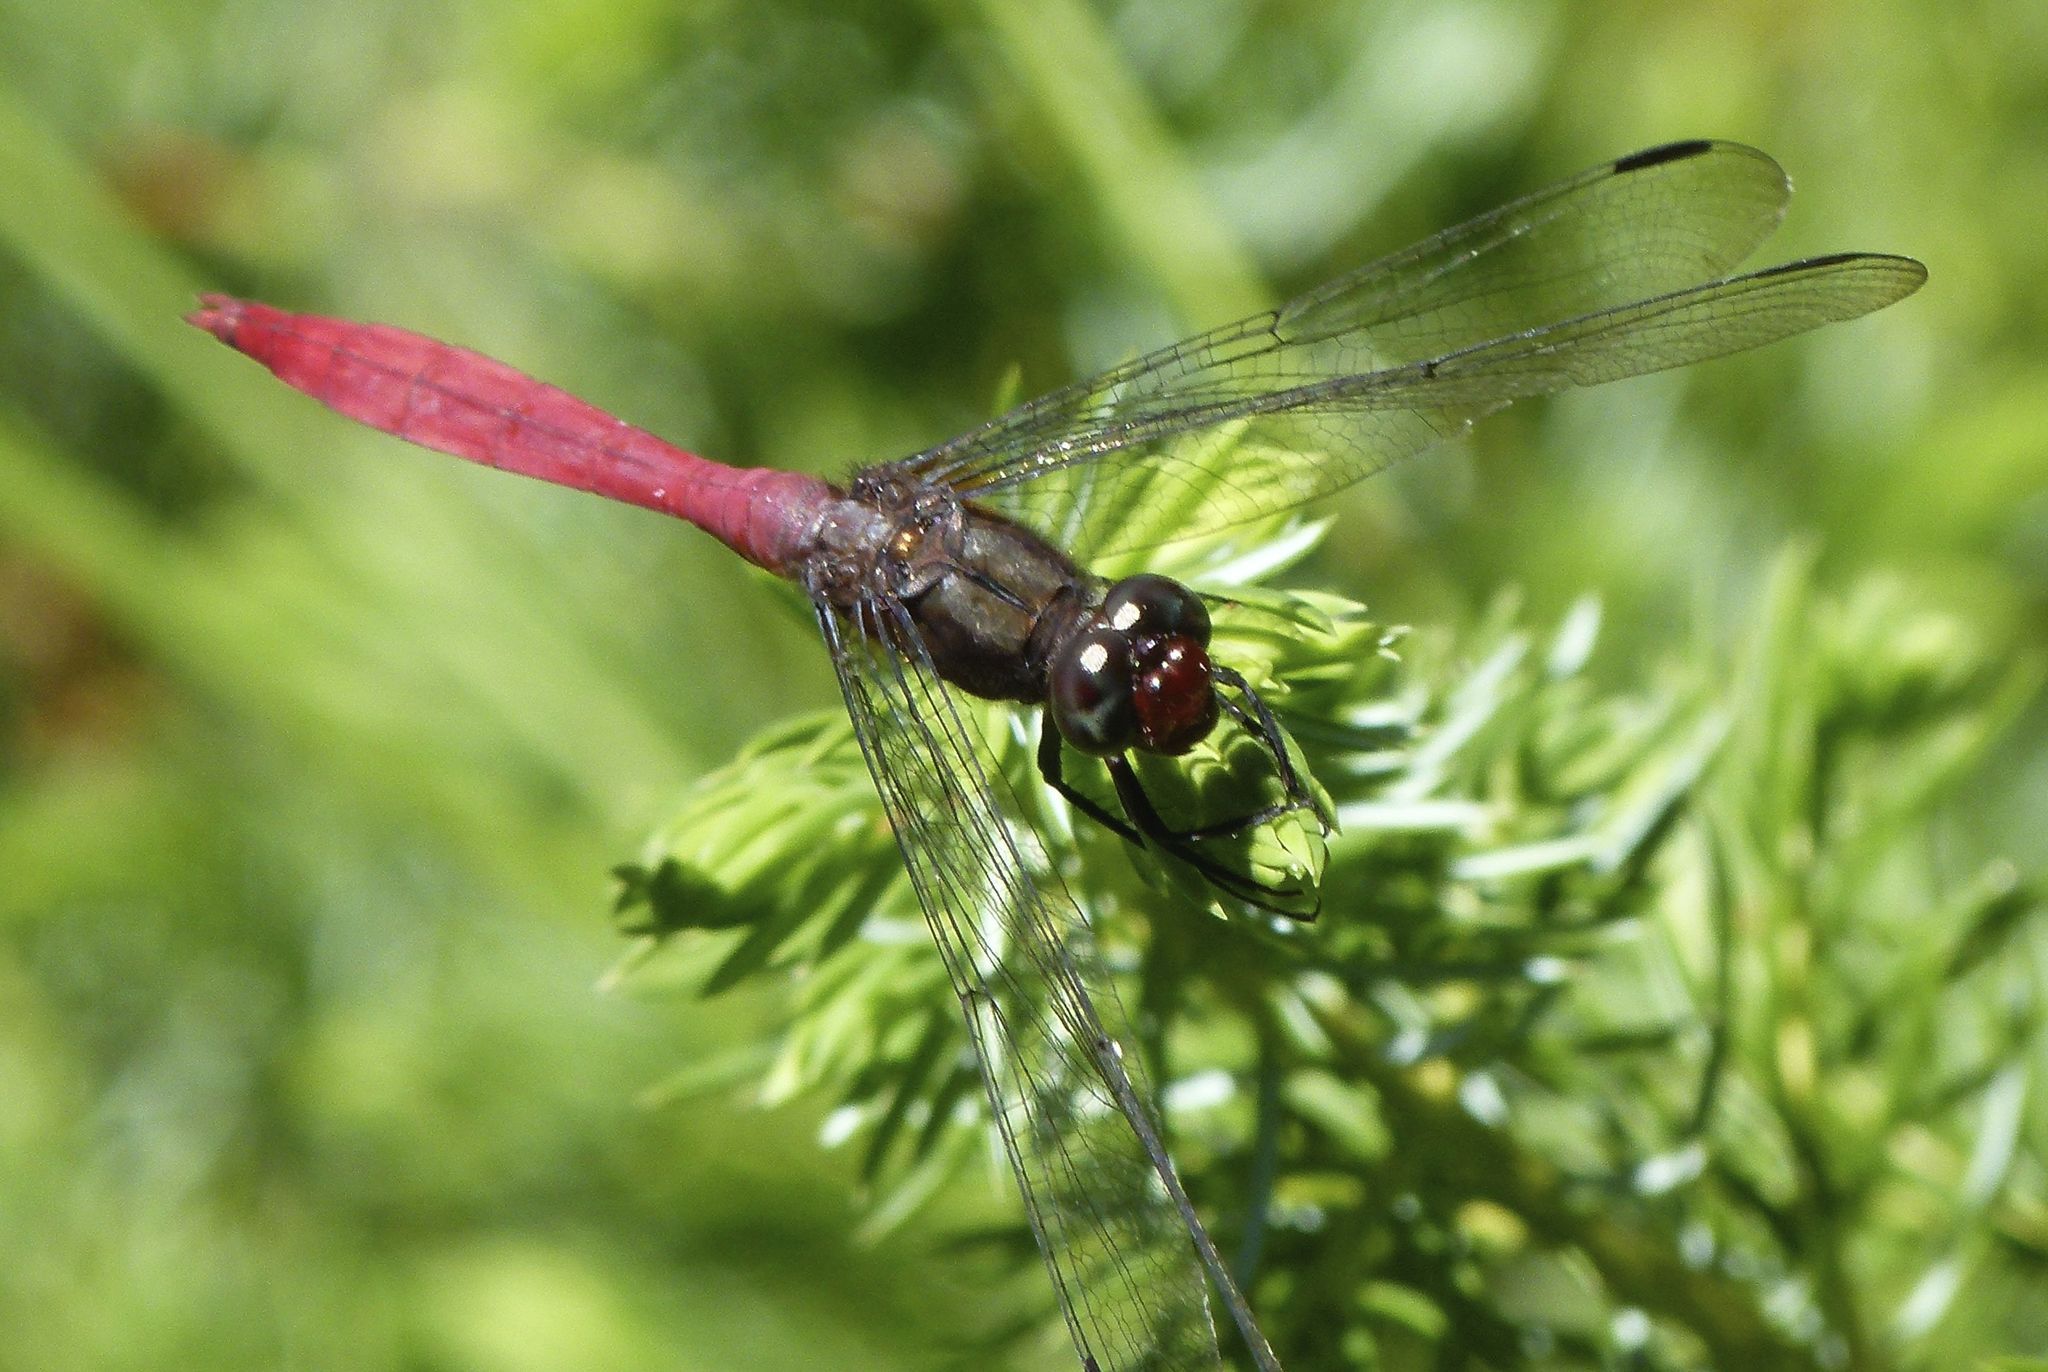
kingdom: Animalia
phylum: Arthropoda
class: Insecta
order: Odonata
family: Libellulidae
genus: Orthetrum
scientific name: Orthetrum villosovittatum
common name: Firery skimmer
